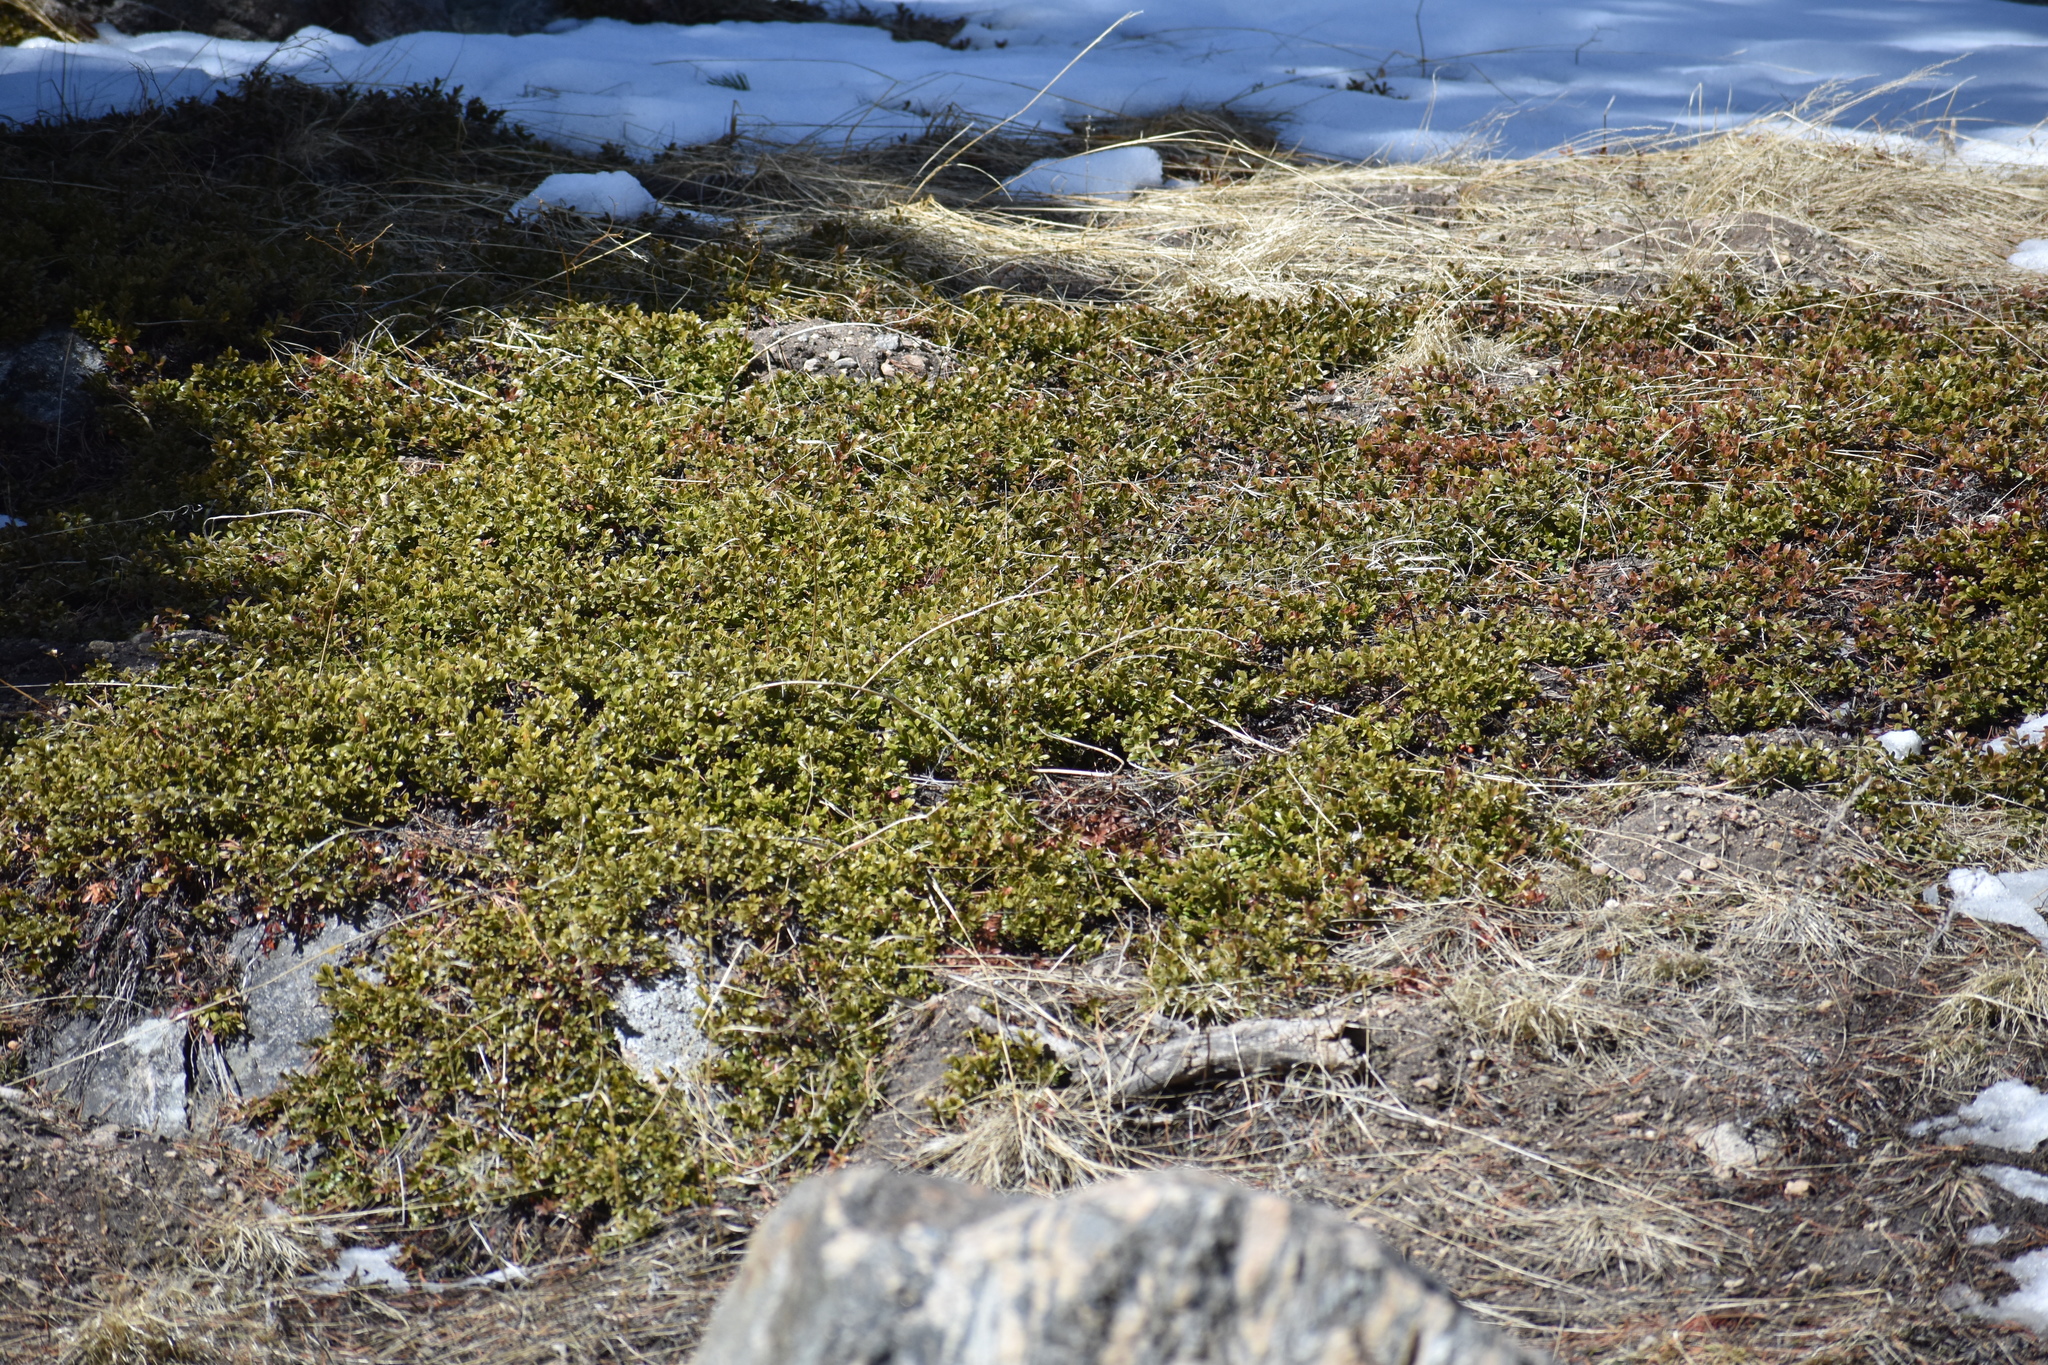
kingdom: Plantae
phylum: Tracheophyta
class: Magnoliopsida
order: Ericales
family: Ericaceae
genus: Arctostaphylos
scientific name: Arctostaphylos uva-ursi
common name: Bearberry
